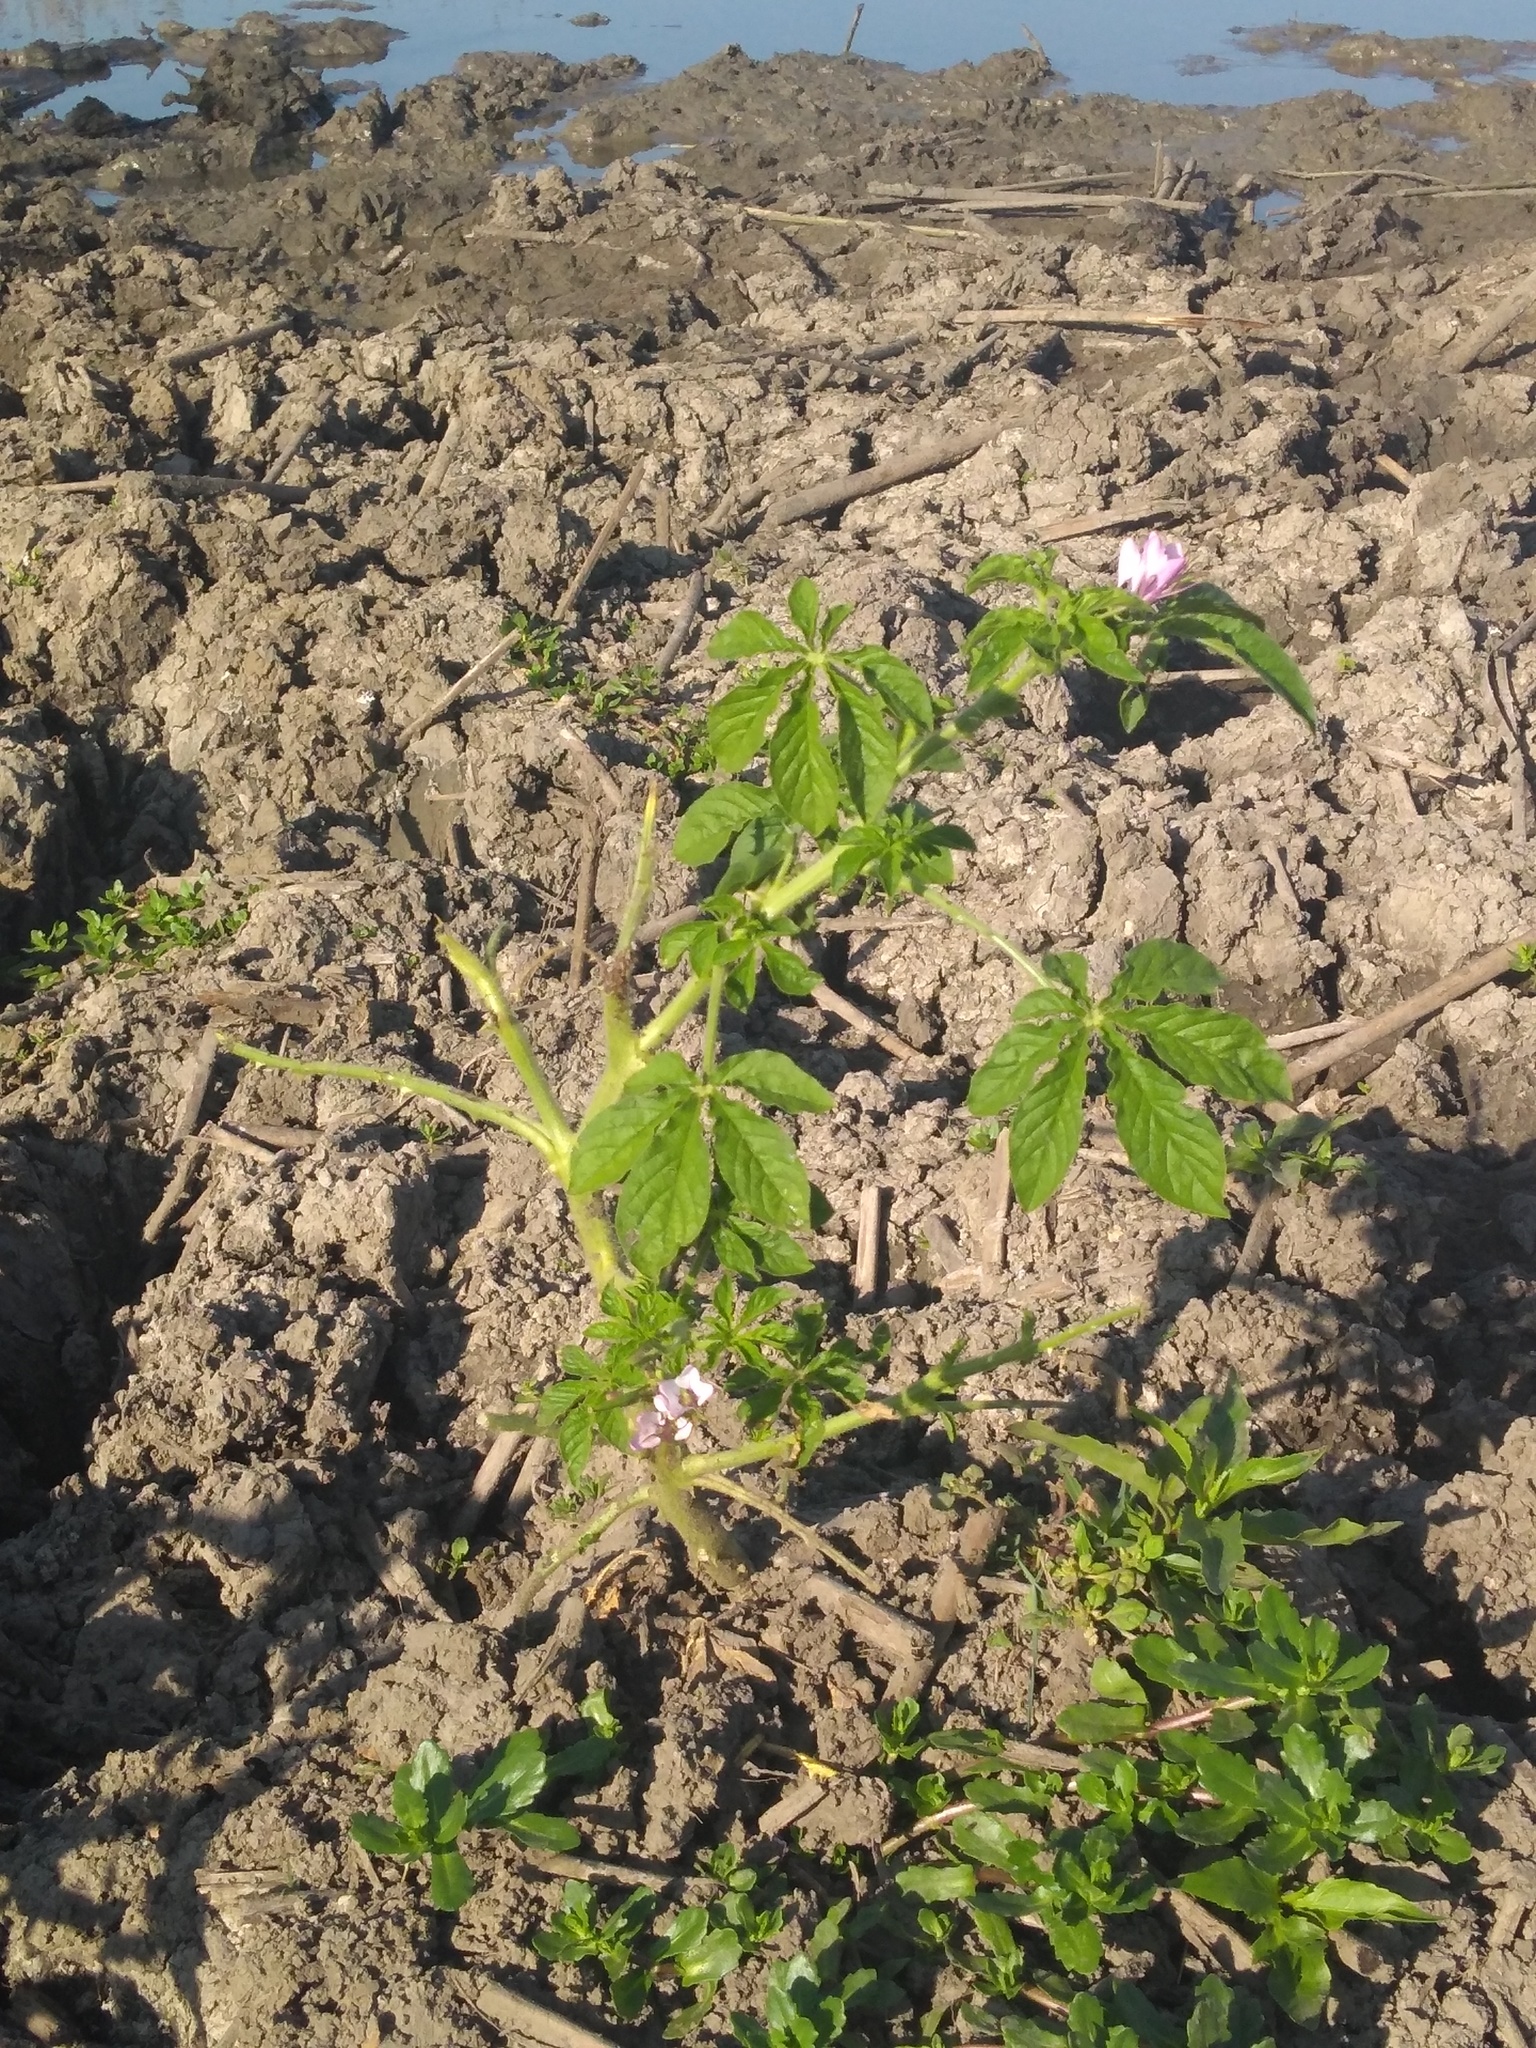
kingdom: Plantae
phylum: Tracheophyta
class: Magnoliopsida
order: Brassicales
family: Cleomaceae
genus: Tarenaya
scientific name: Tarenaya houtteana
